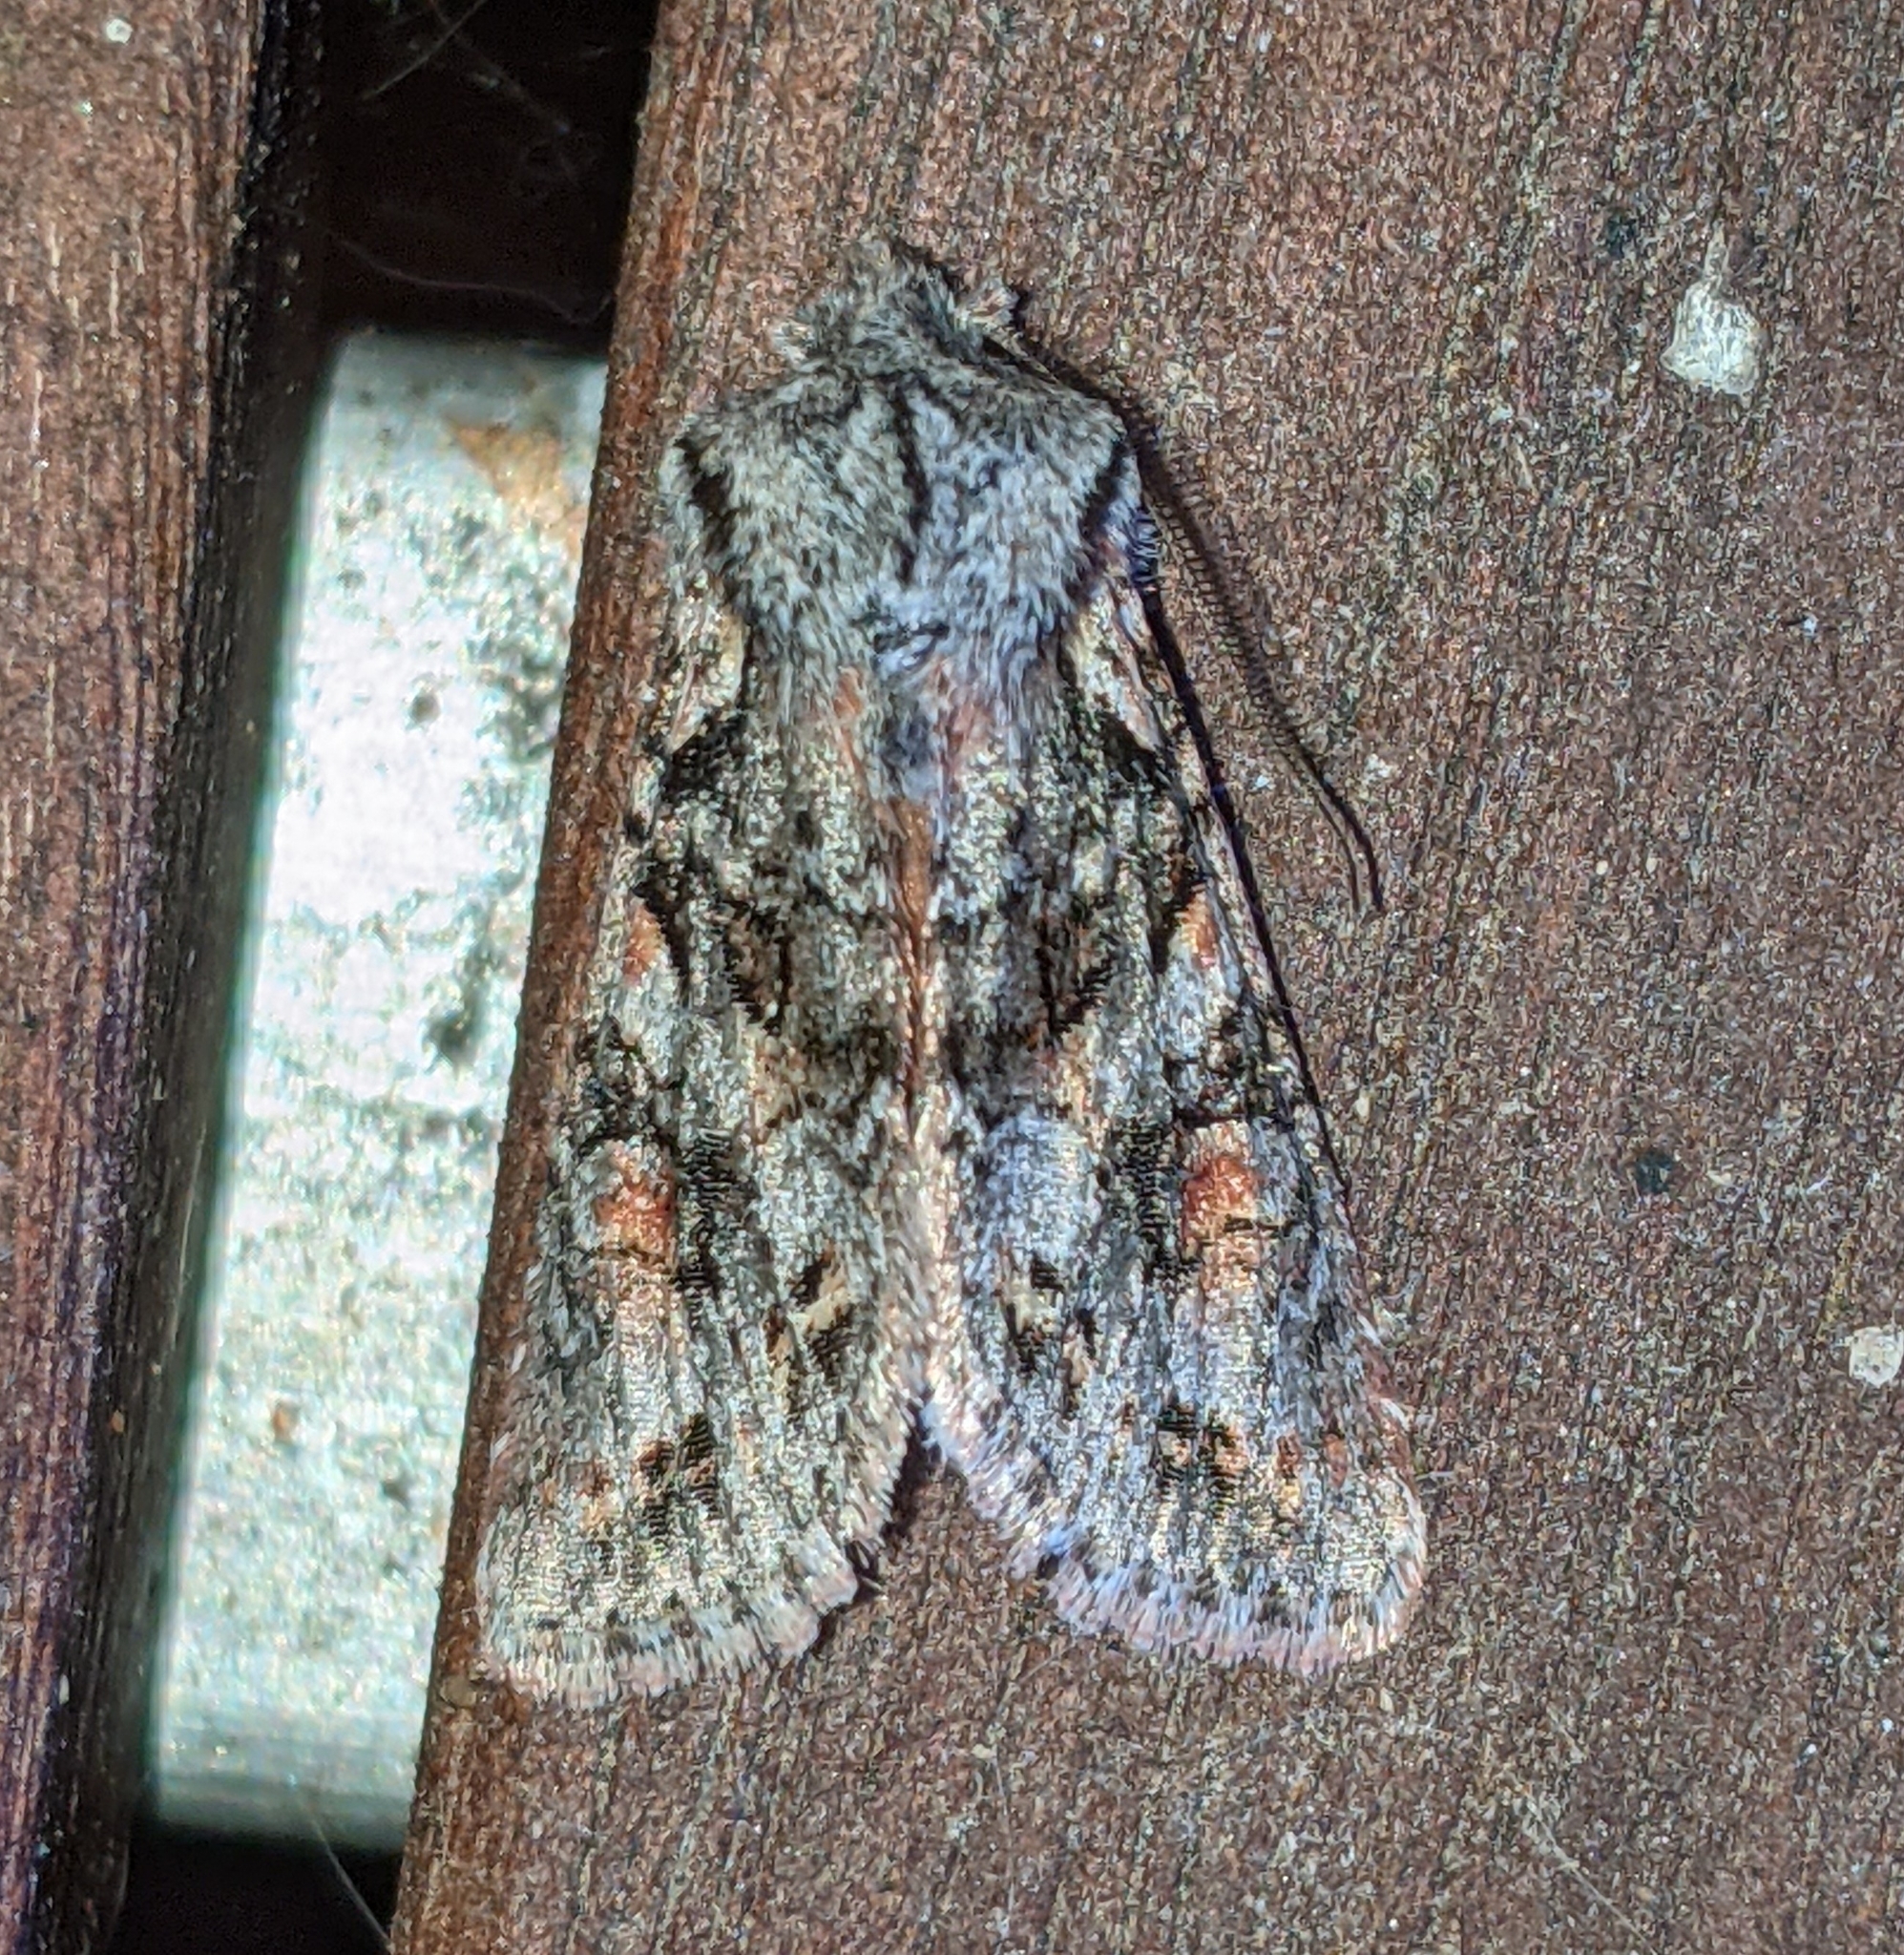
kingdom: Animalia
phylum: Arthropoda
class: Insecta
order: Lepidoptera
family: Noctuidae
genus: Egira
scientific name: Egira hiemalis
